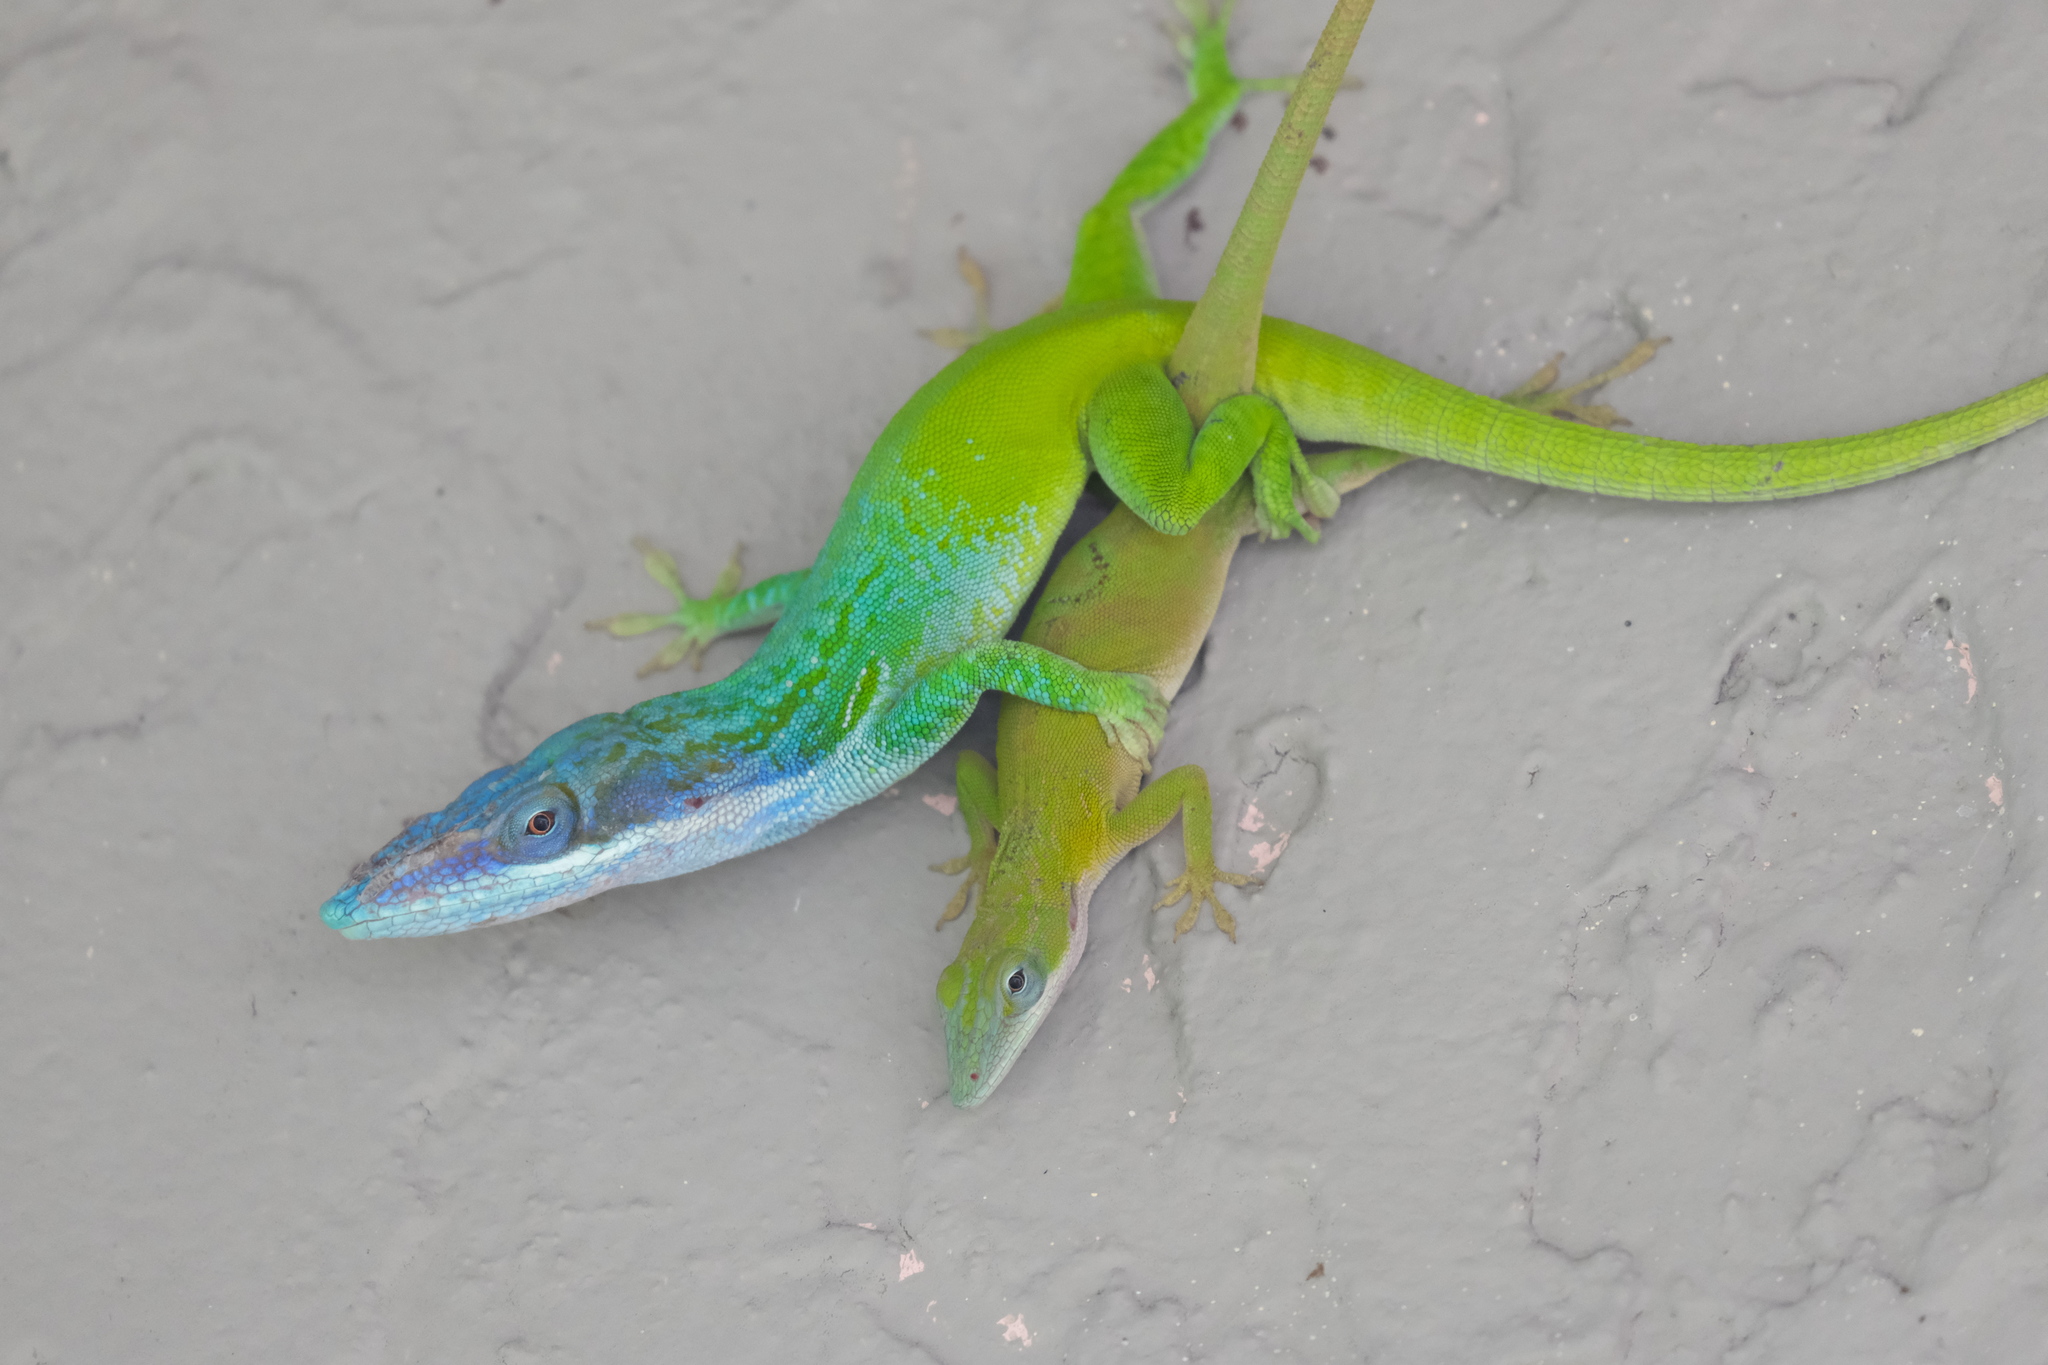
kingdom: Animalia
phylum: Chordata
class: Squamata
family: Dactyloidae
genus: Anolis
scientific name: Anolis allisoni
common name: Allison's anole
